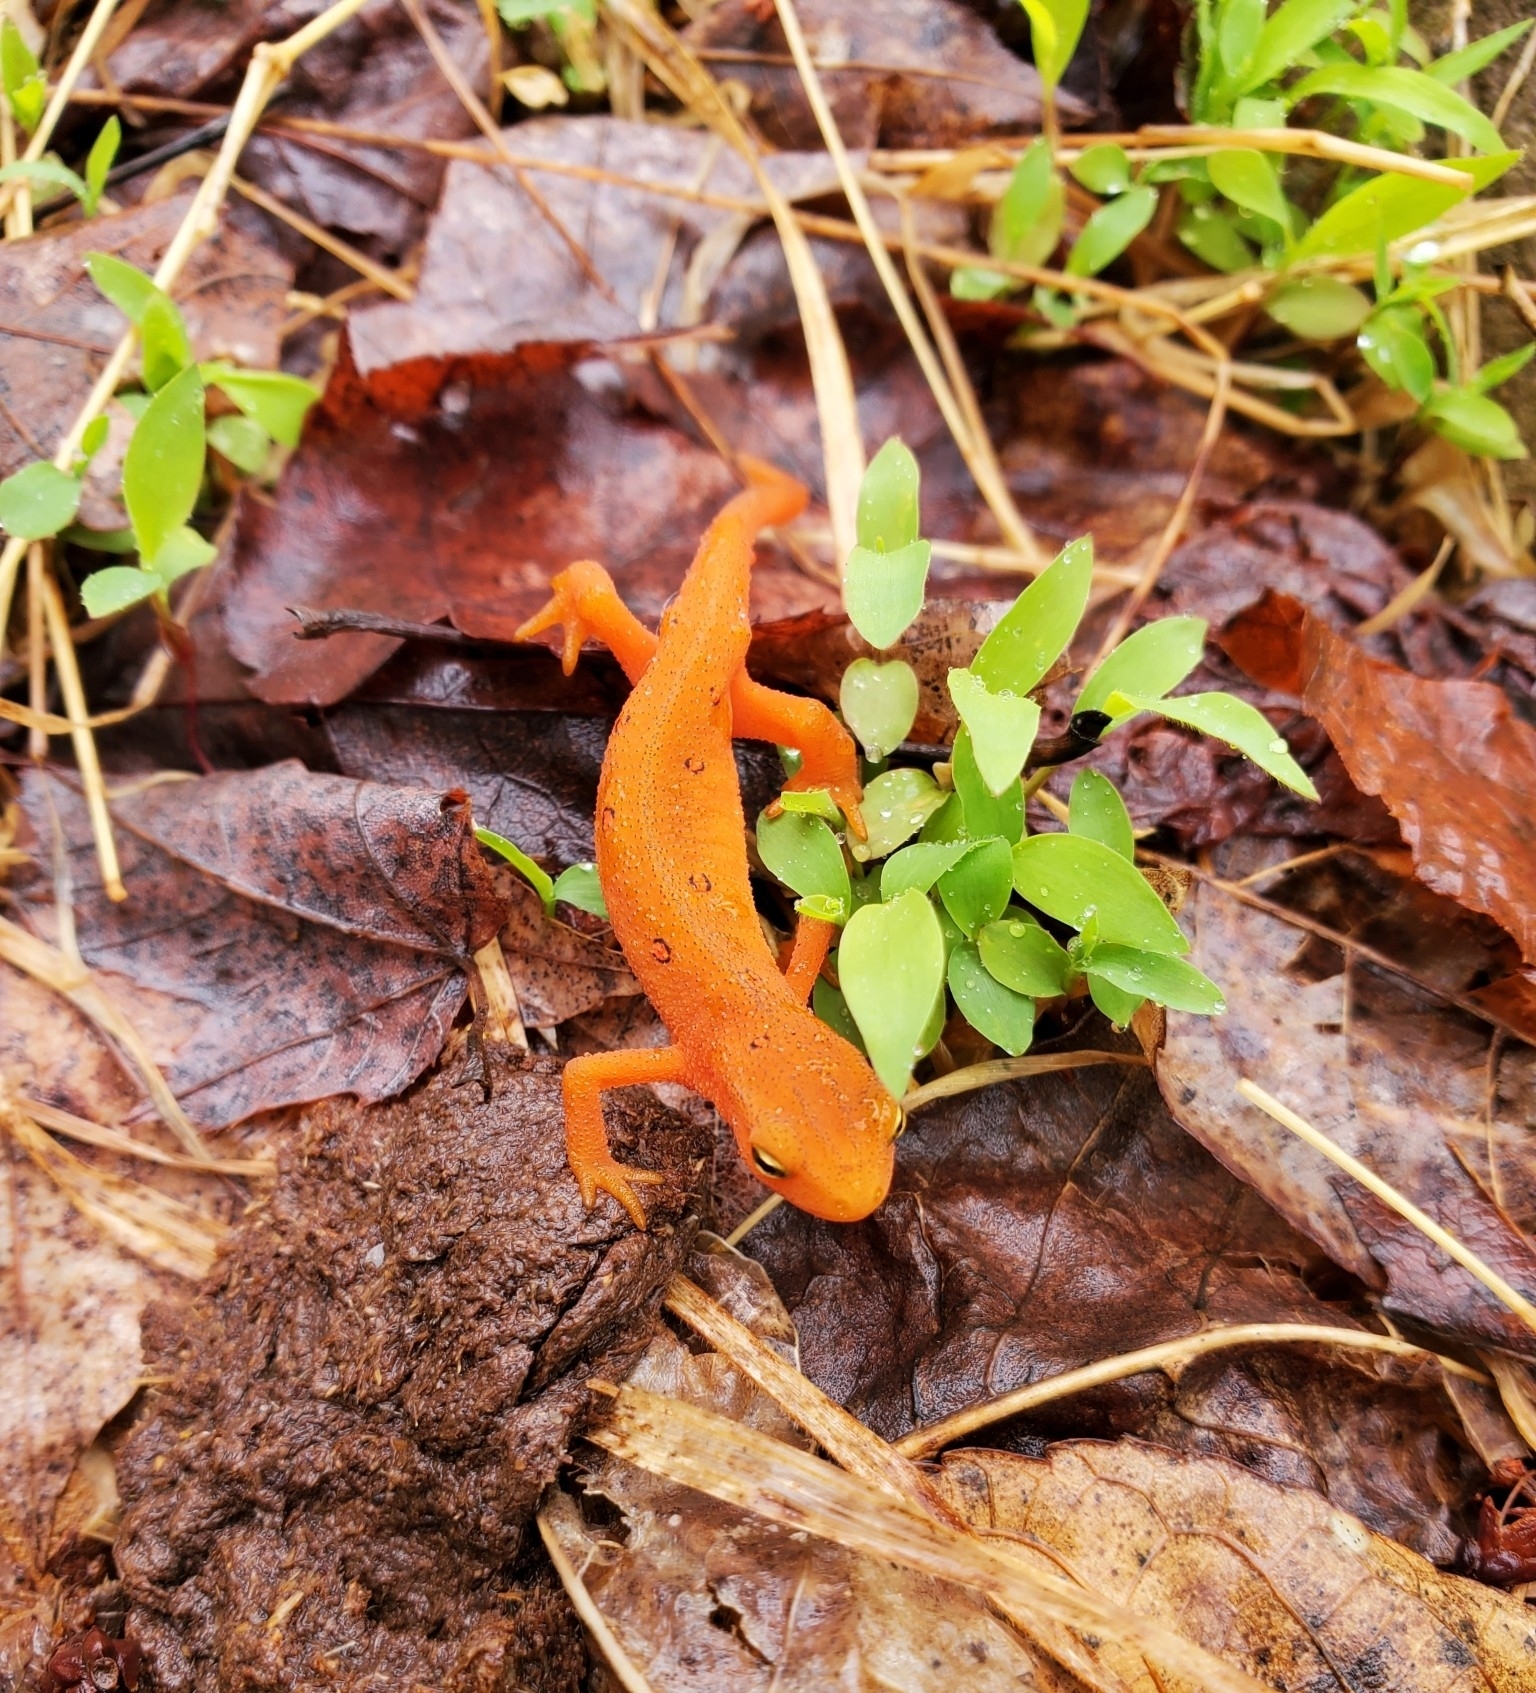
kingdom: Animalia
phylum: Chordata
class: Amphibia
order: Caudata
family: Salamandridae
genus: Notophthalmus
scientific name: Notophthalmus viridescens
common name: Eastern newt
